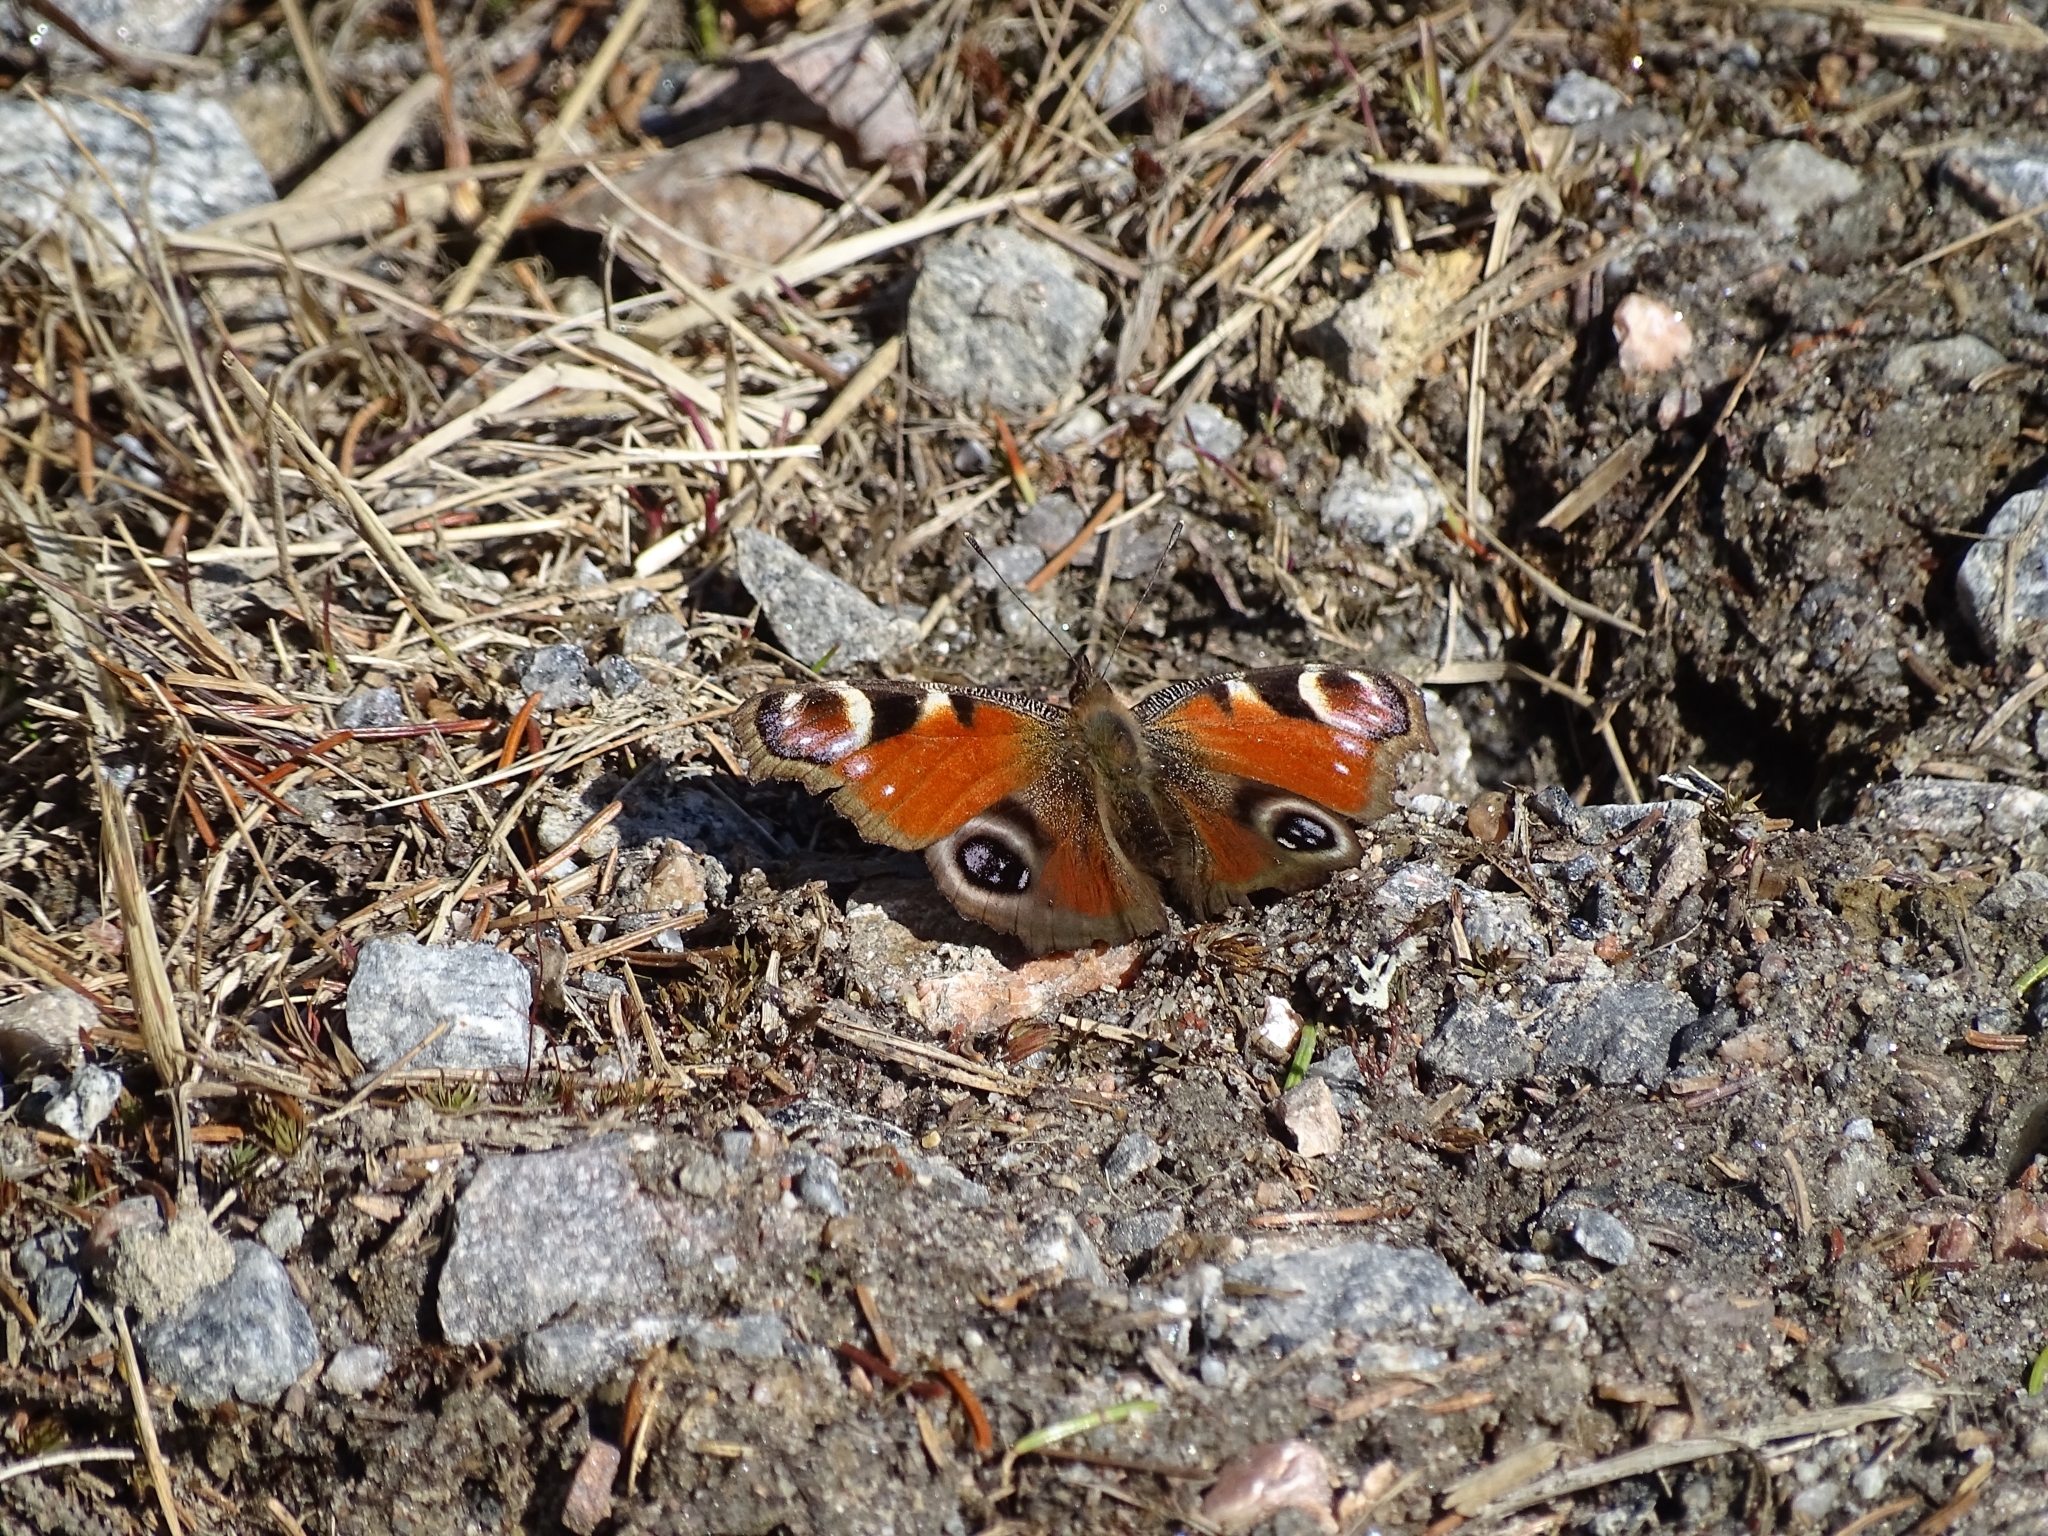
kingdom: Animalia
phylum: Arthropoda
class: Insecta
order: Lepidoptera
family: Nymphalidae
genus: Aglais
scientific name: Aglais io
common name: Peacock
